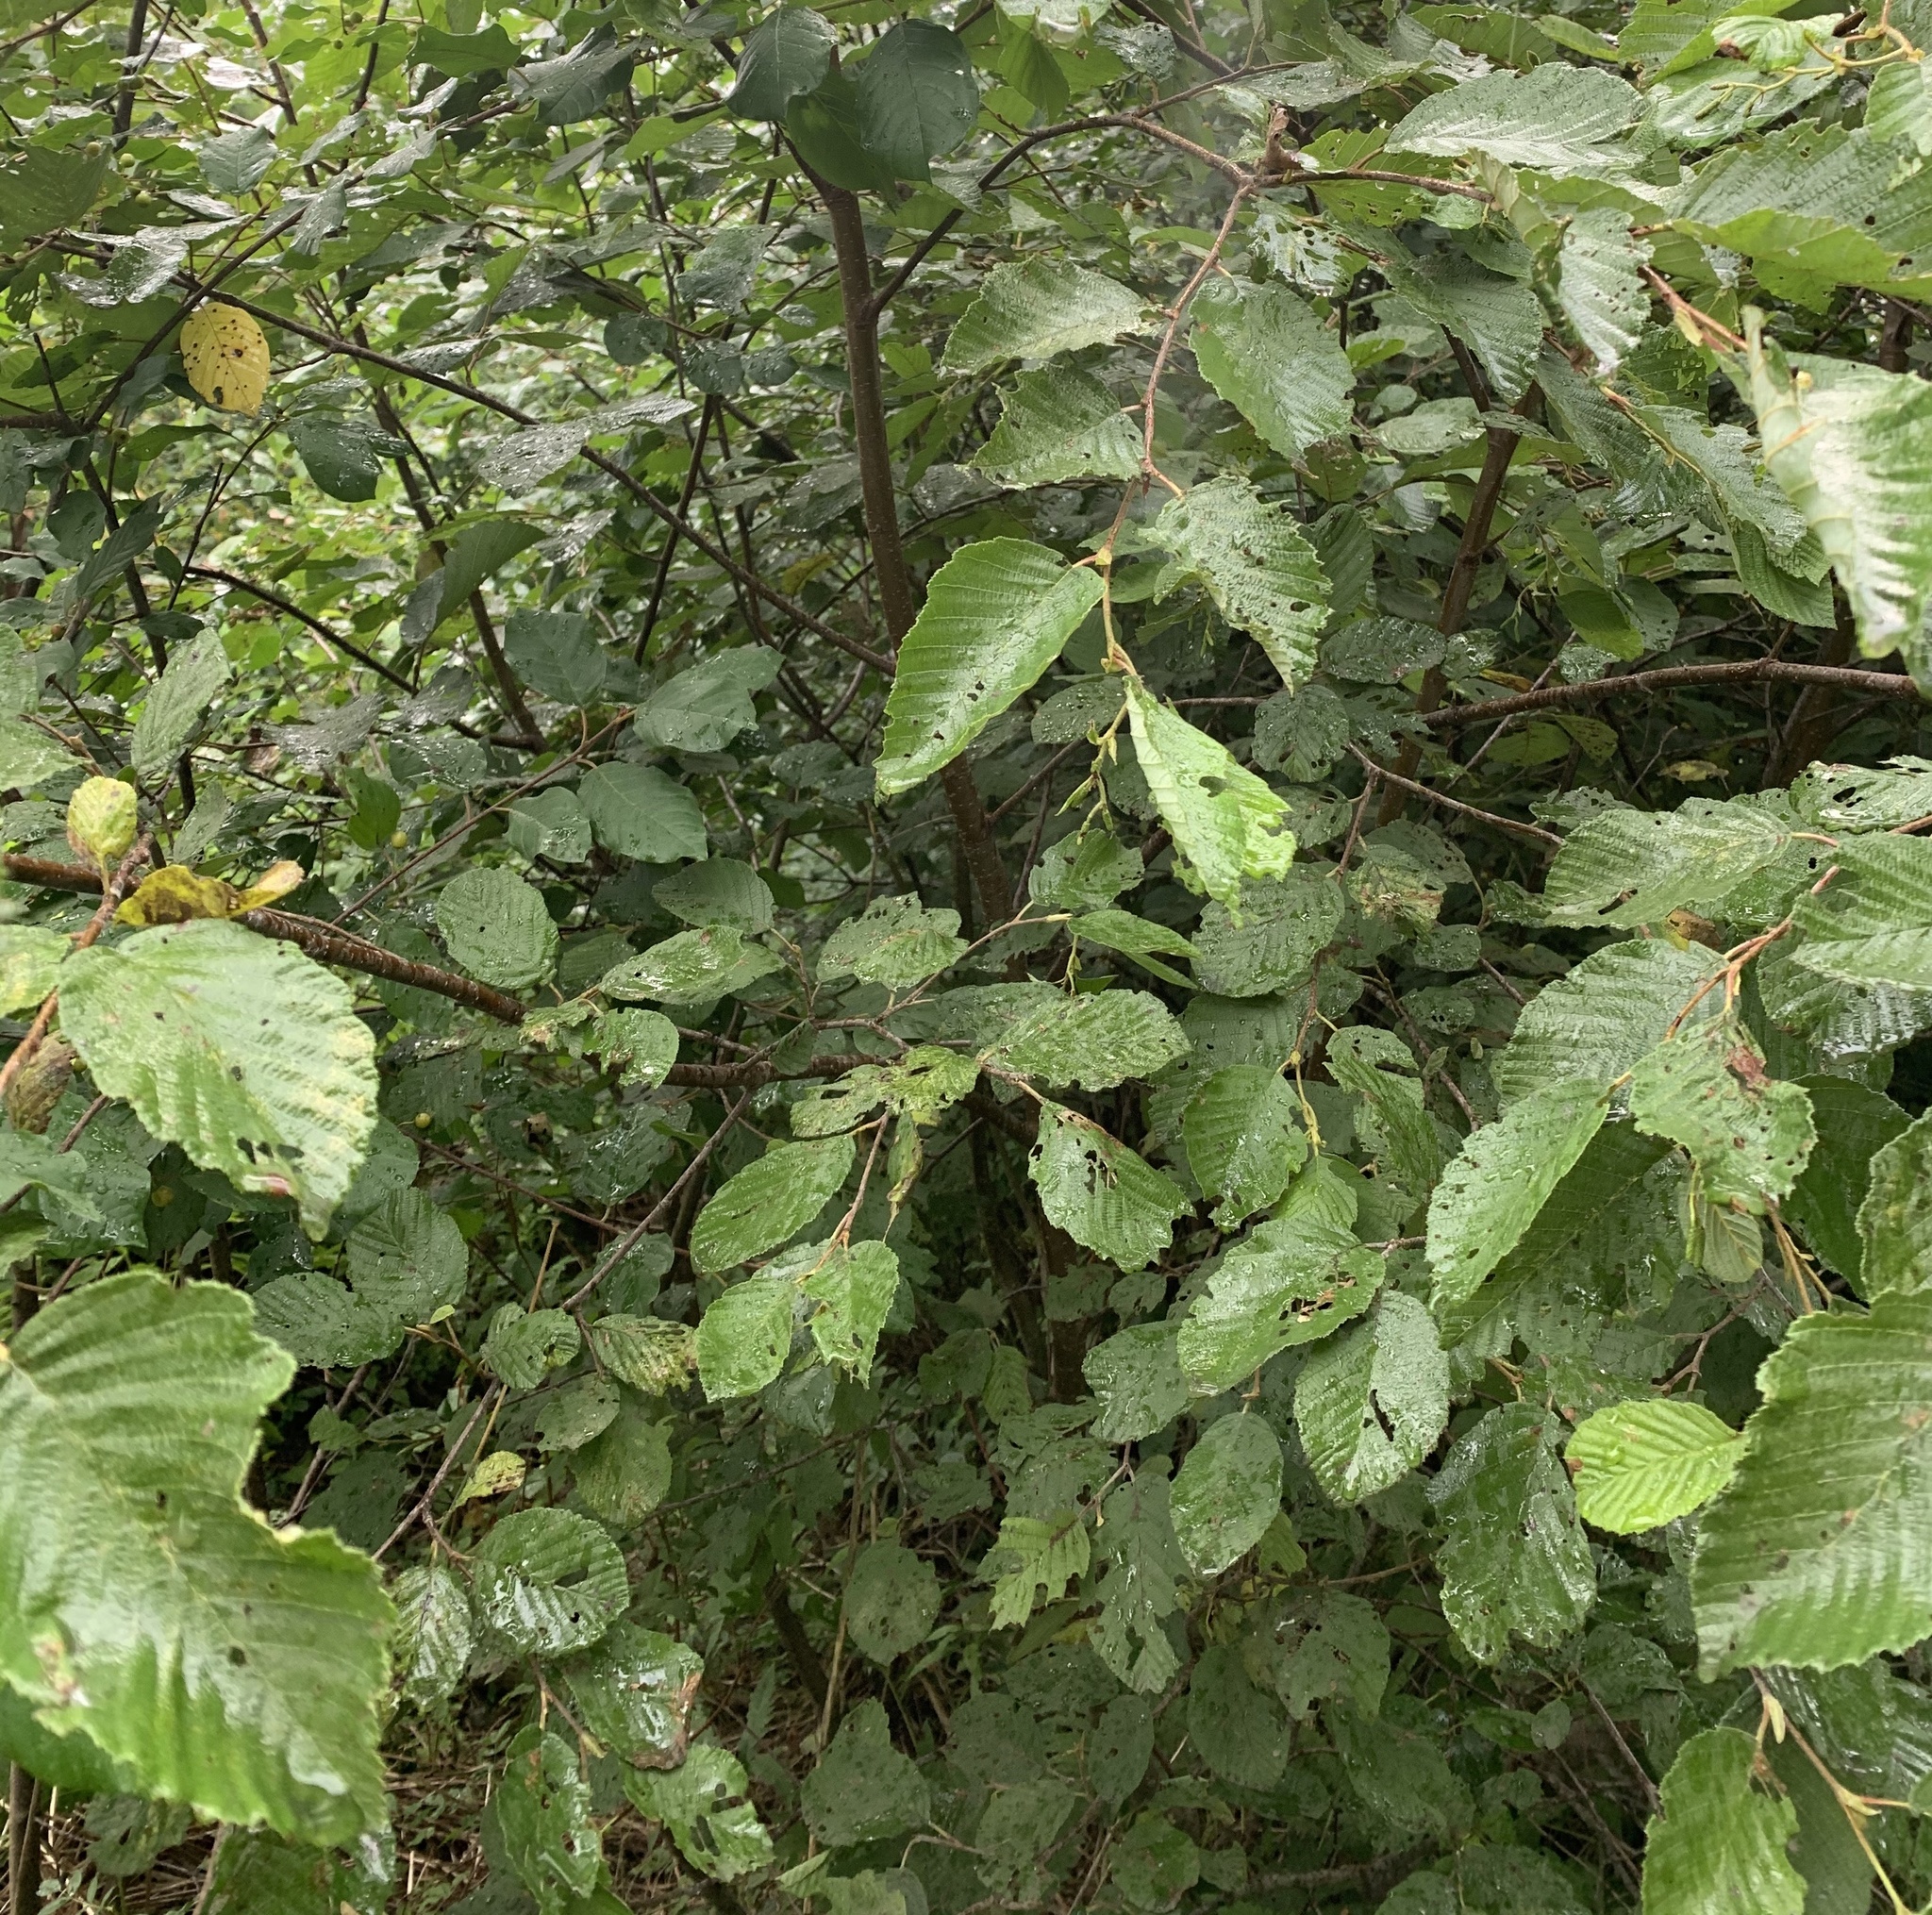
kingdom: Plantae
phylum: Tracheophyta
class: Magnoliopsida
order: Fagales
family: Betulaceae
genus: Alnus
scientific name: Alnus incana
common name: Grey alder
